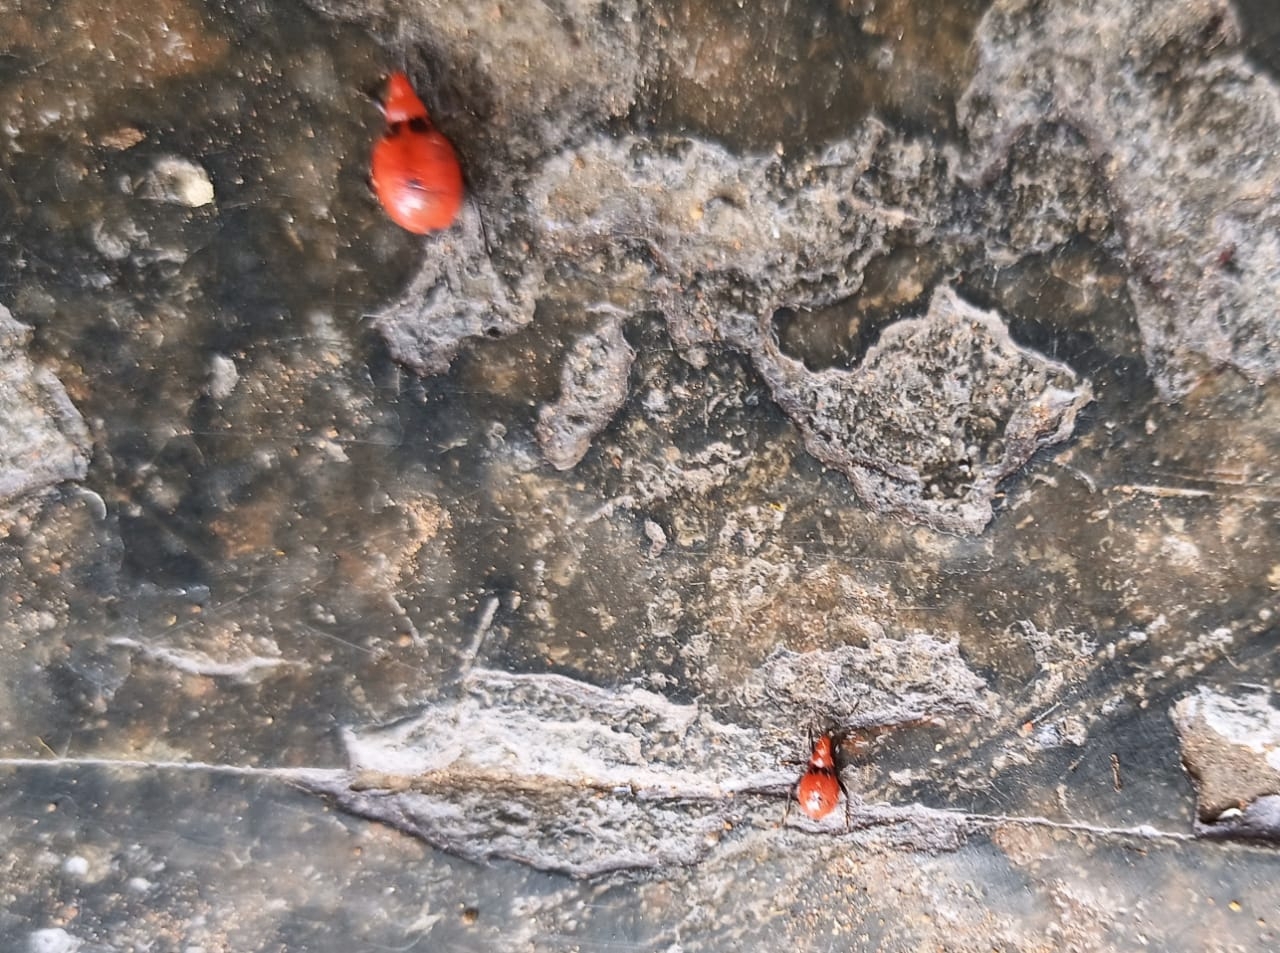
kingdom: Animalia
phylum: Arthropoda
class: Insecta
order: Hemiptera
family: Reduviidae
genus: Ectrichodia
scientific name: Ectrichodia crux
